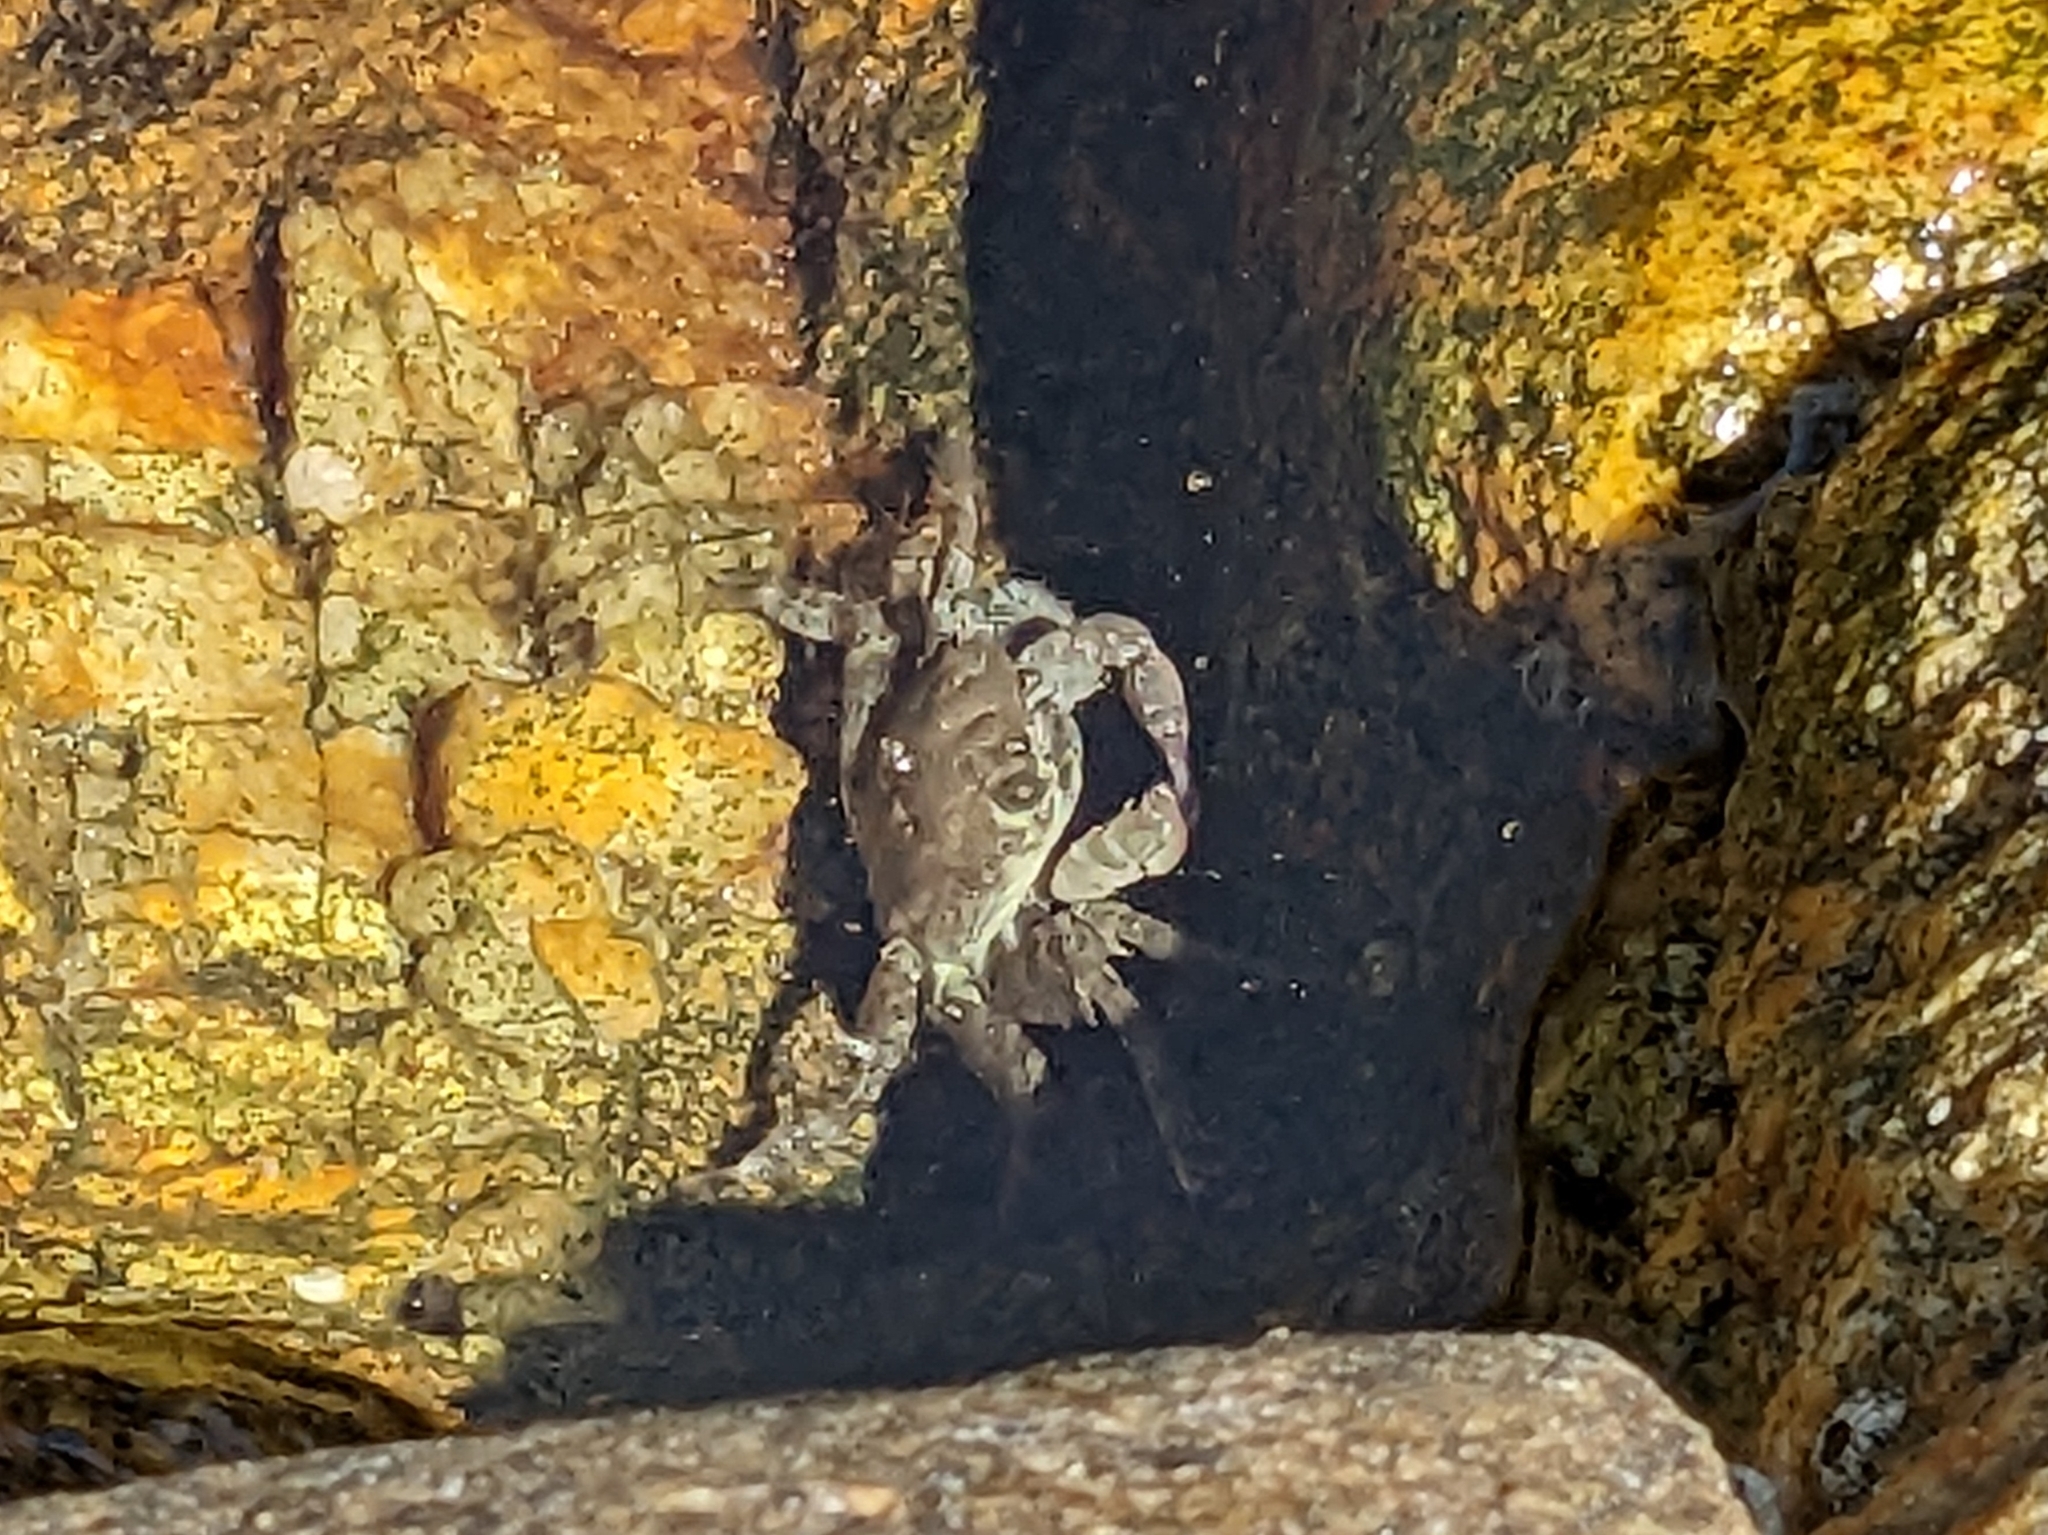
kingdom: Animalia
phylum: Arthropoda
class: Malacostraca
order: Decapoda
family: Grapsidae
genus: Pachygrapsus
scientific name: Pachygrapsus marmoratus
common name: Marbled rock crab
